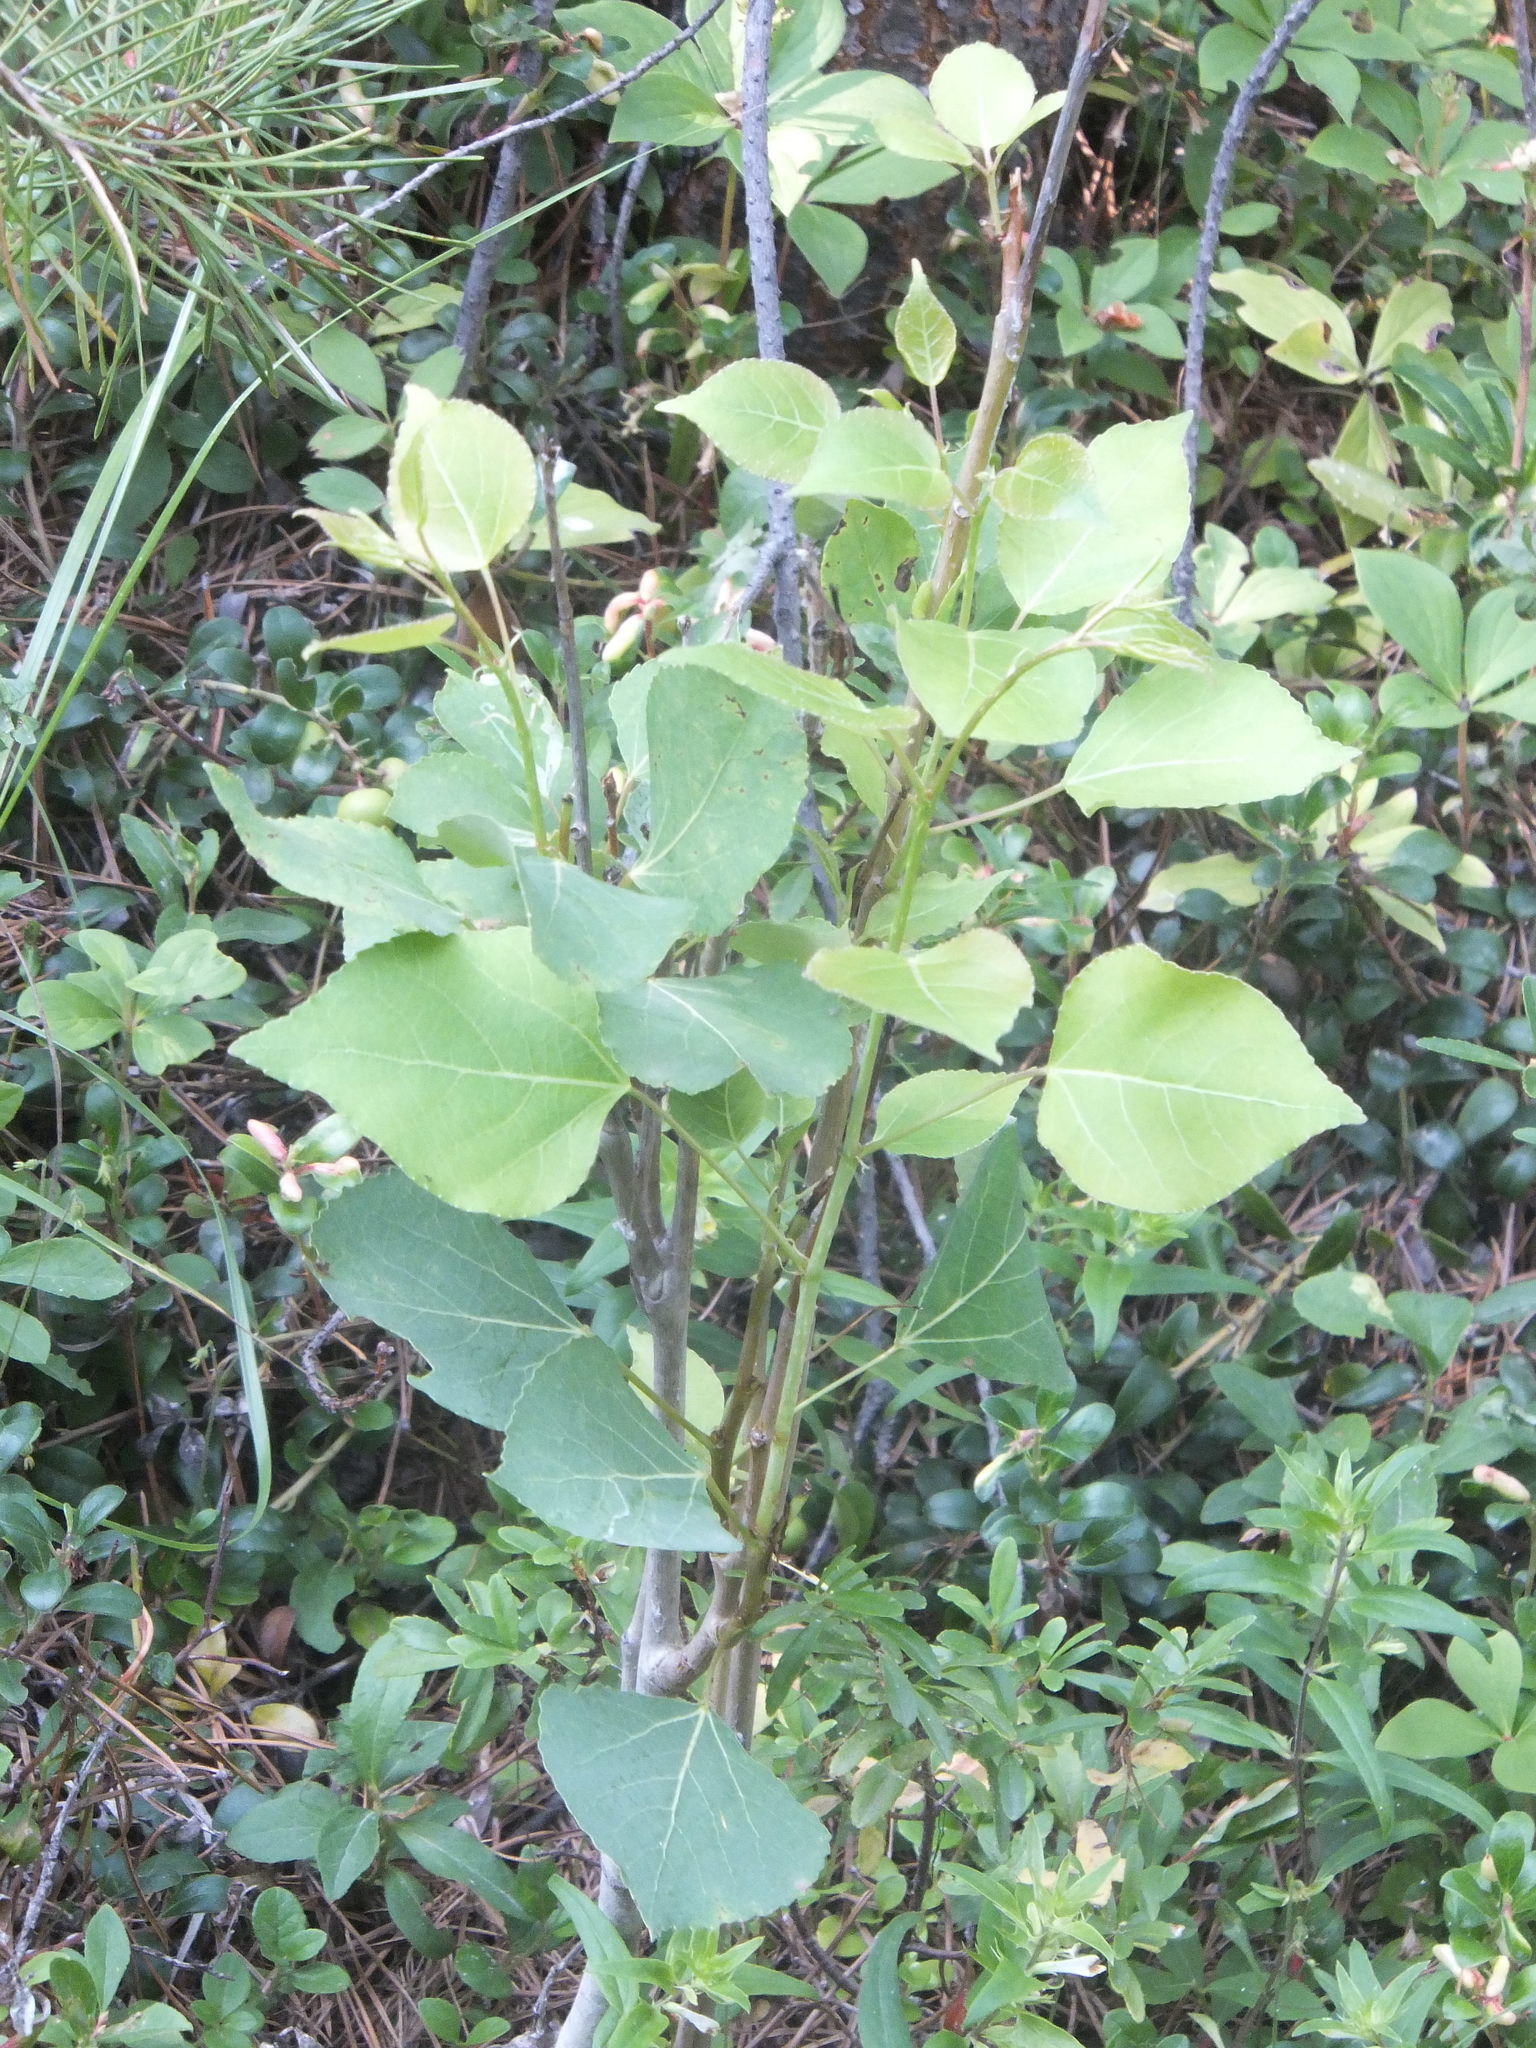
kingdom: Plantae
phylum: Tracheophyta
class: Magnoliopsida
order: Malpighiales
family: Salicaceae
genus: Populus
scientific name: Populus tremuloides
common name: Quaking aspen
